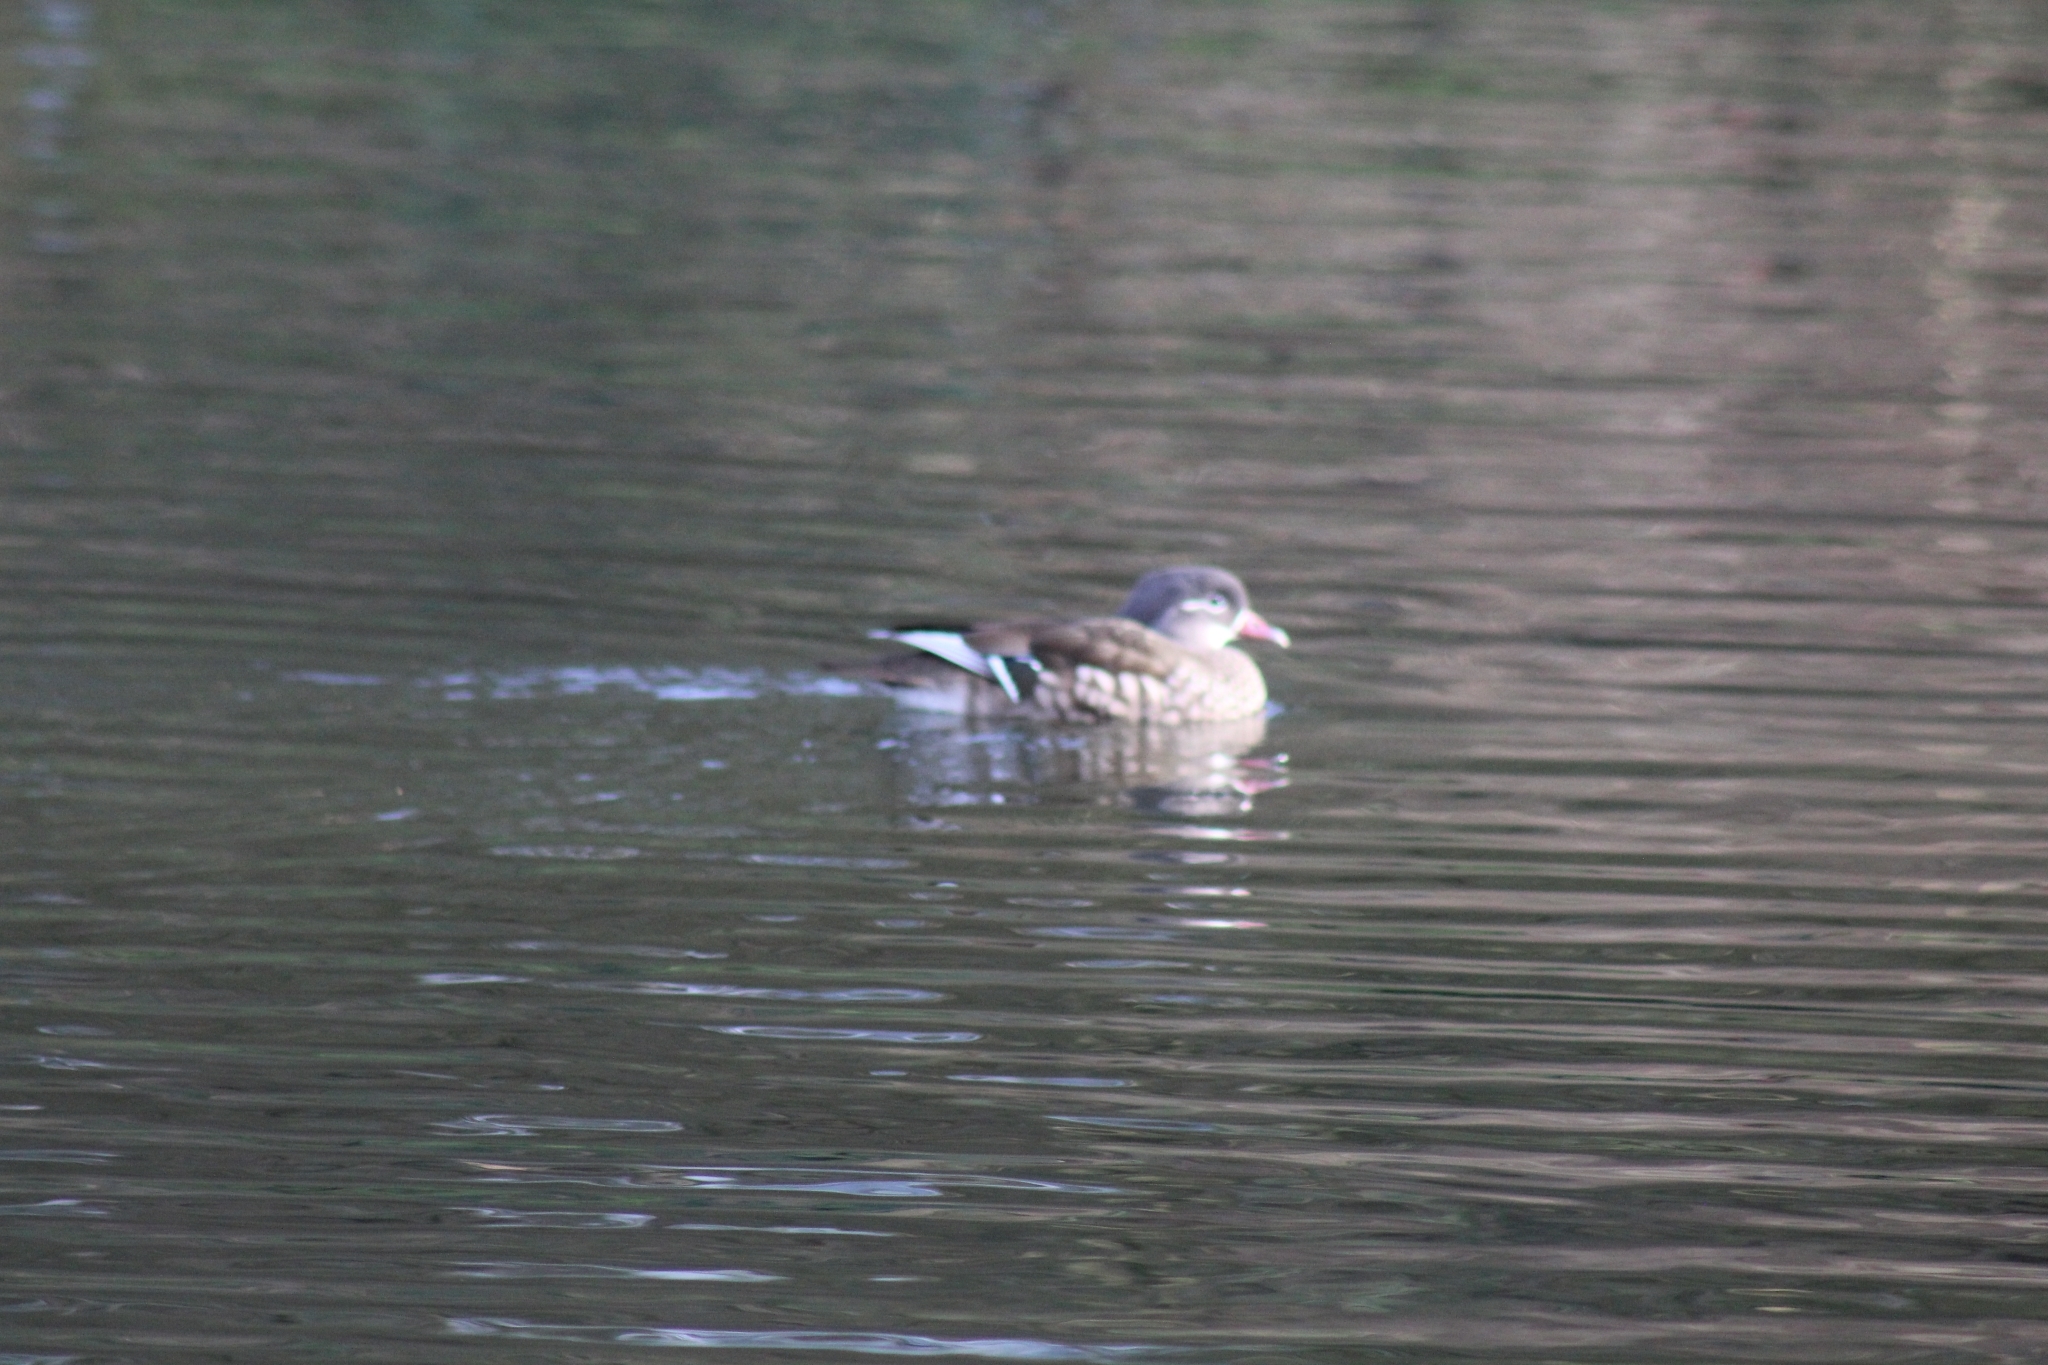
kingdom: Animalia
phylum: Chordata
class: Aves
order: Anseriformes
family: Anatidae
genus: Aix
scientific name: Aix galericulata
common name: Mandarin duck
